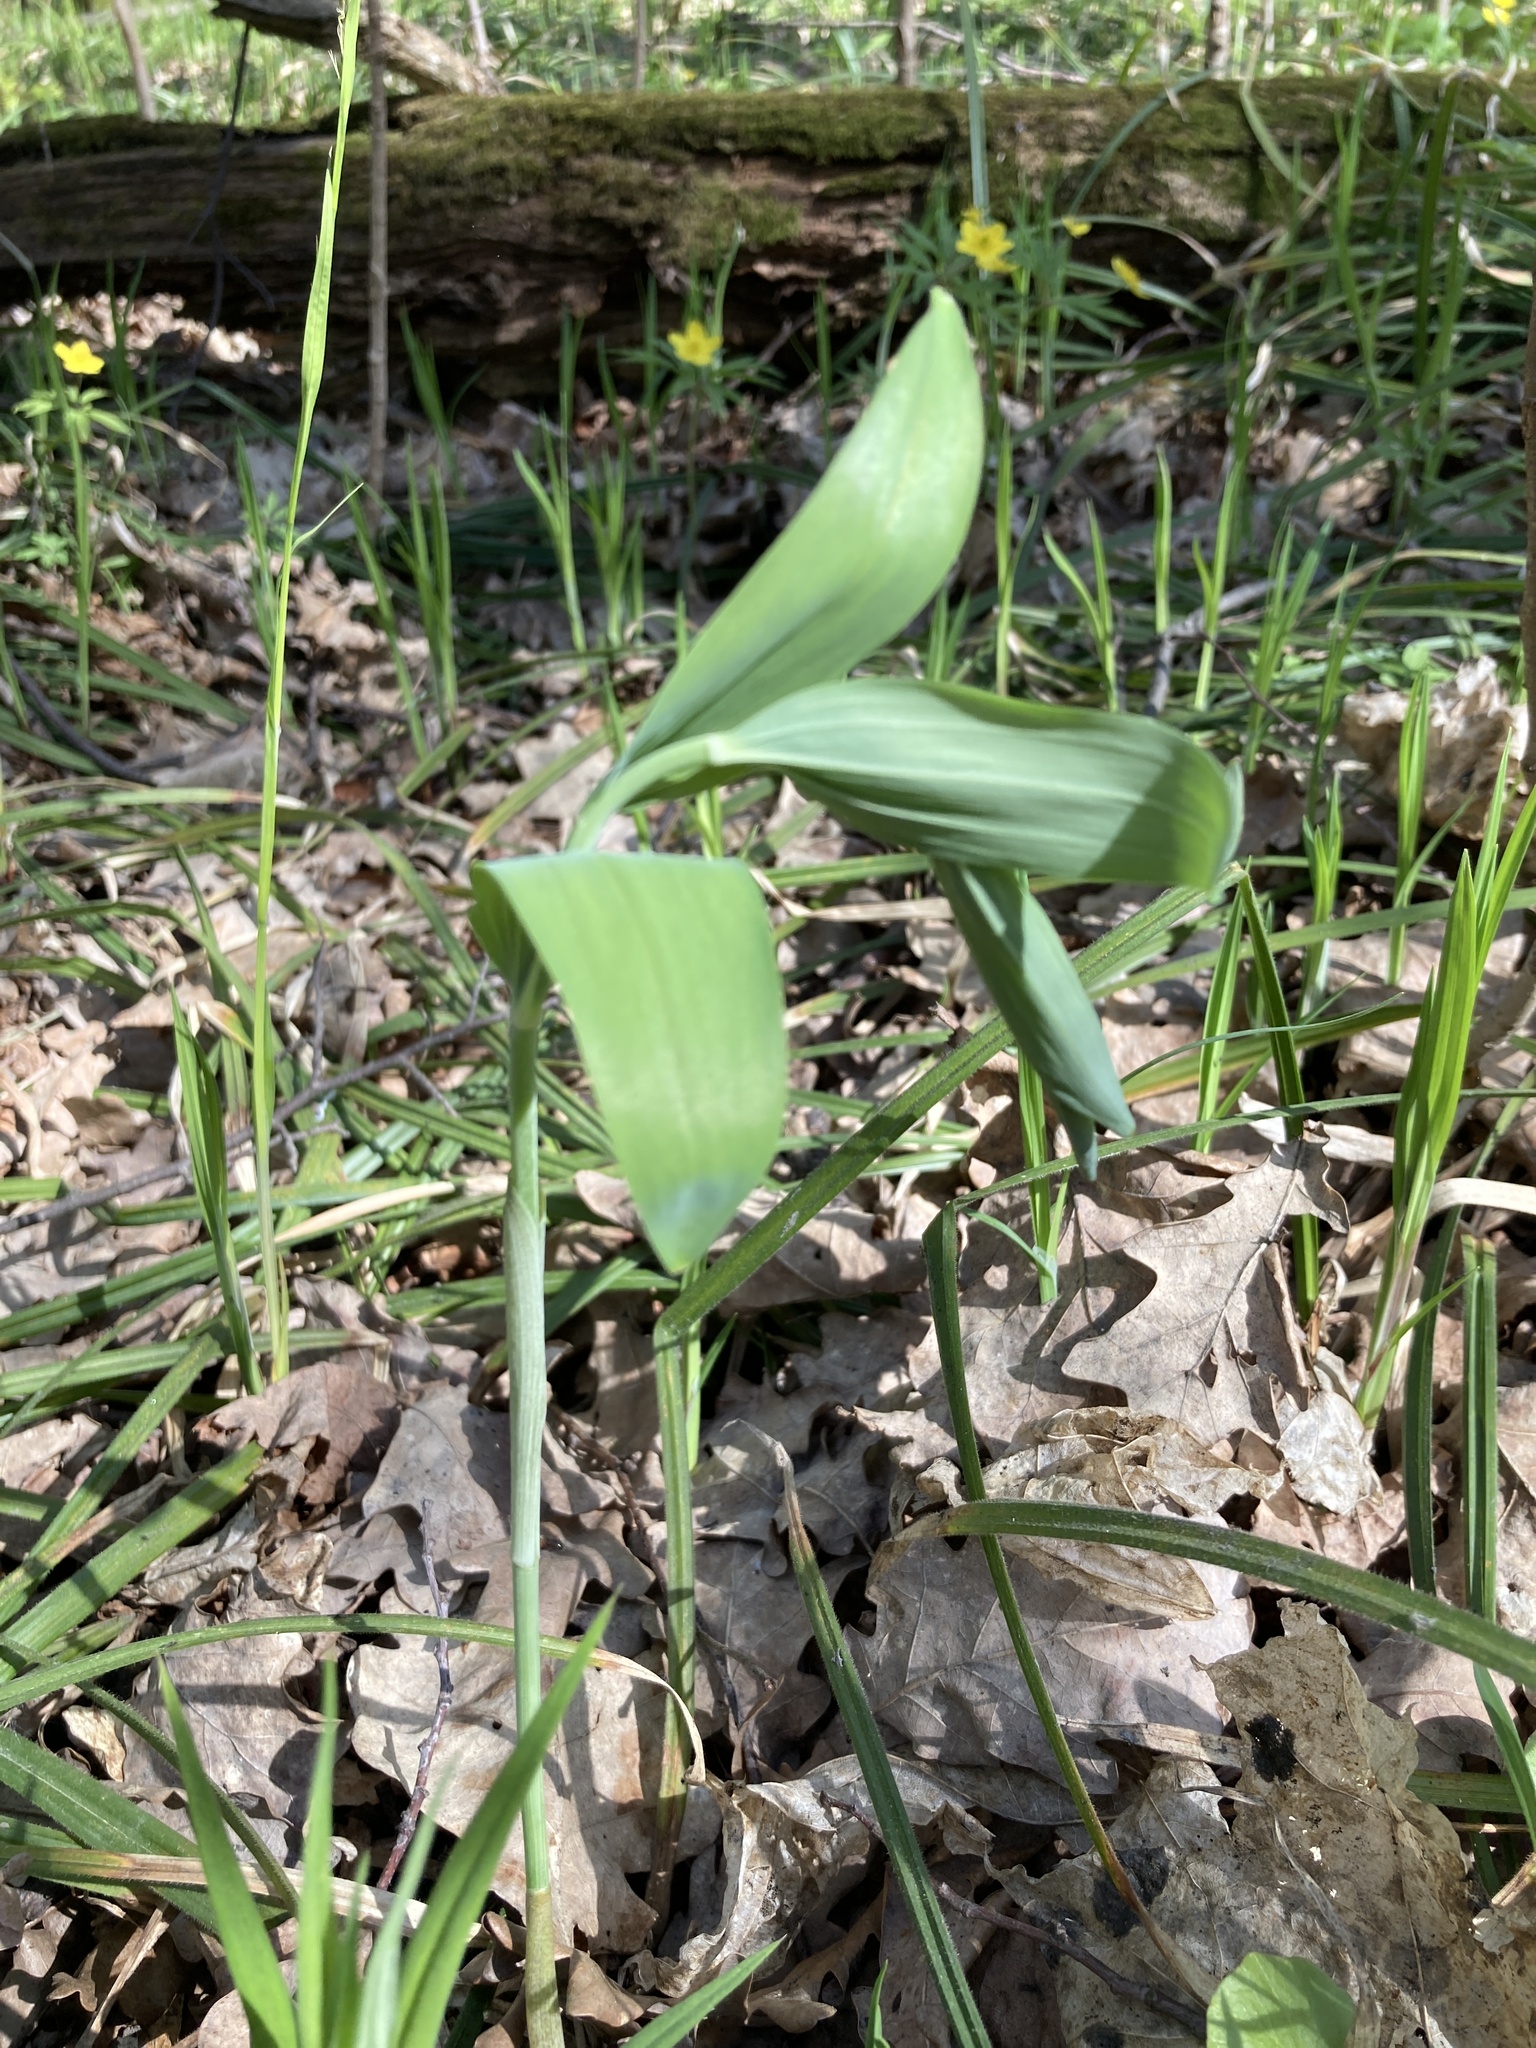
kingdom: Plantae
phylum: Tracheophyta
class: Liliopsida
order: Asparagales
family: Asparagaceae
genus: Polygonatum
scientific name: Polygonatum multiflorum
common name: Solomon's-seal
